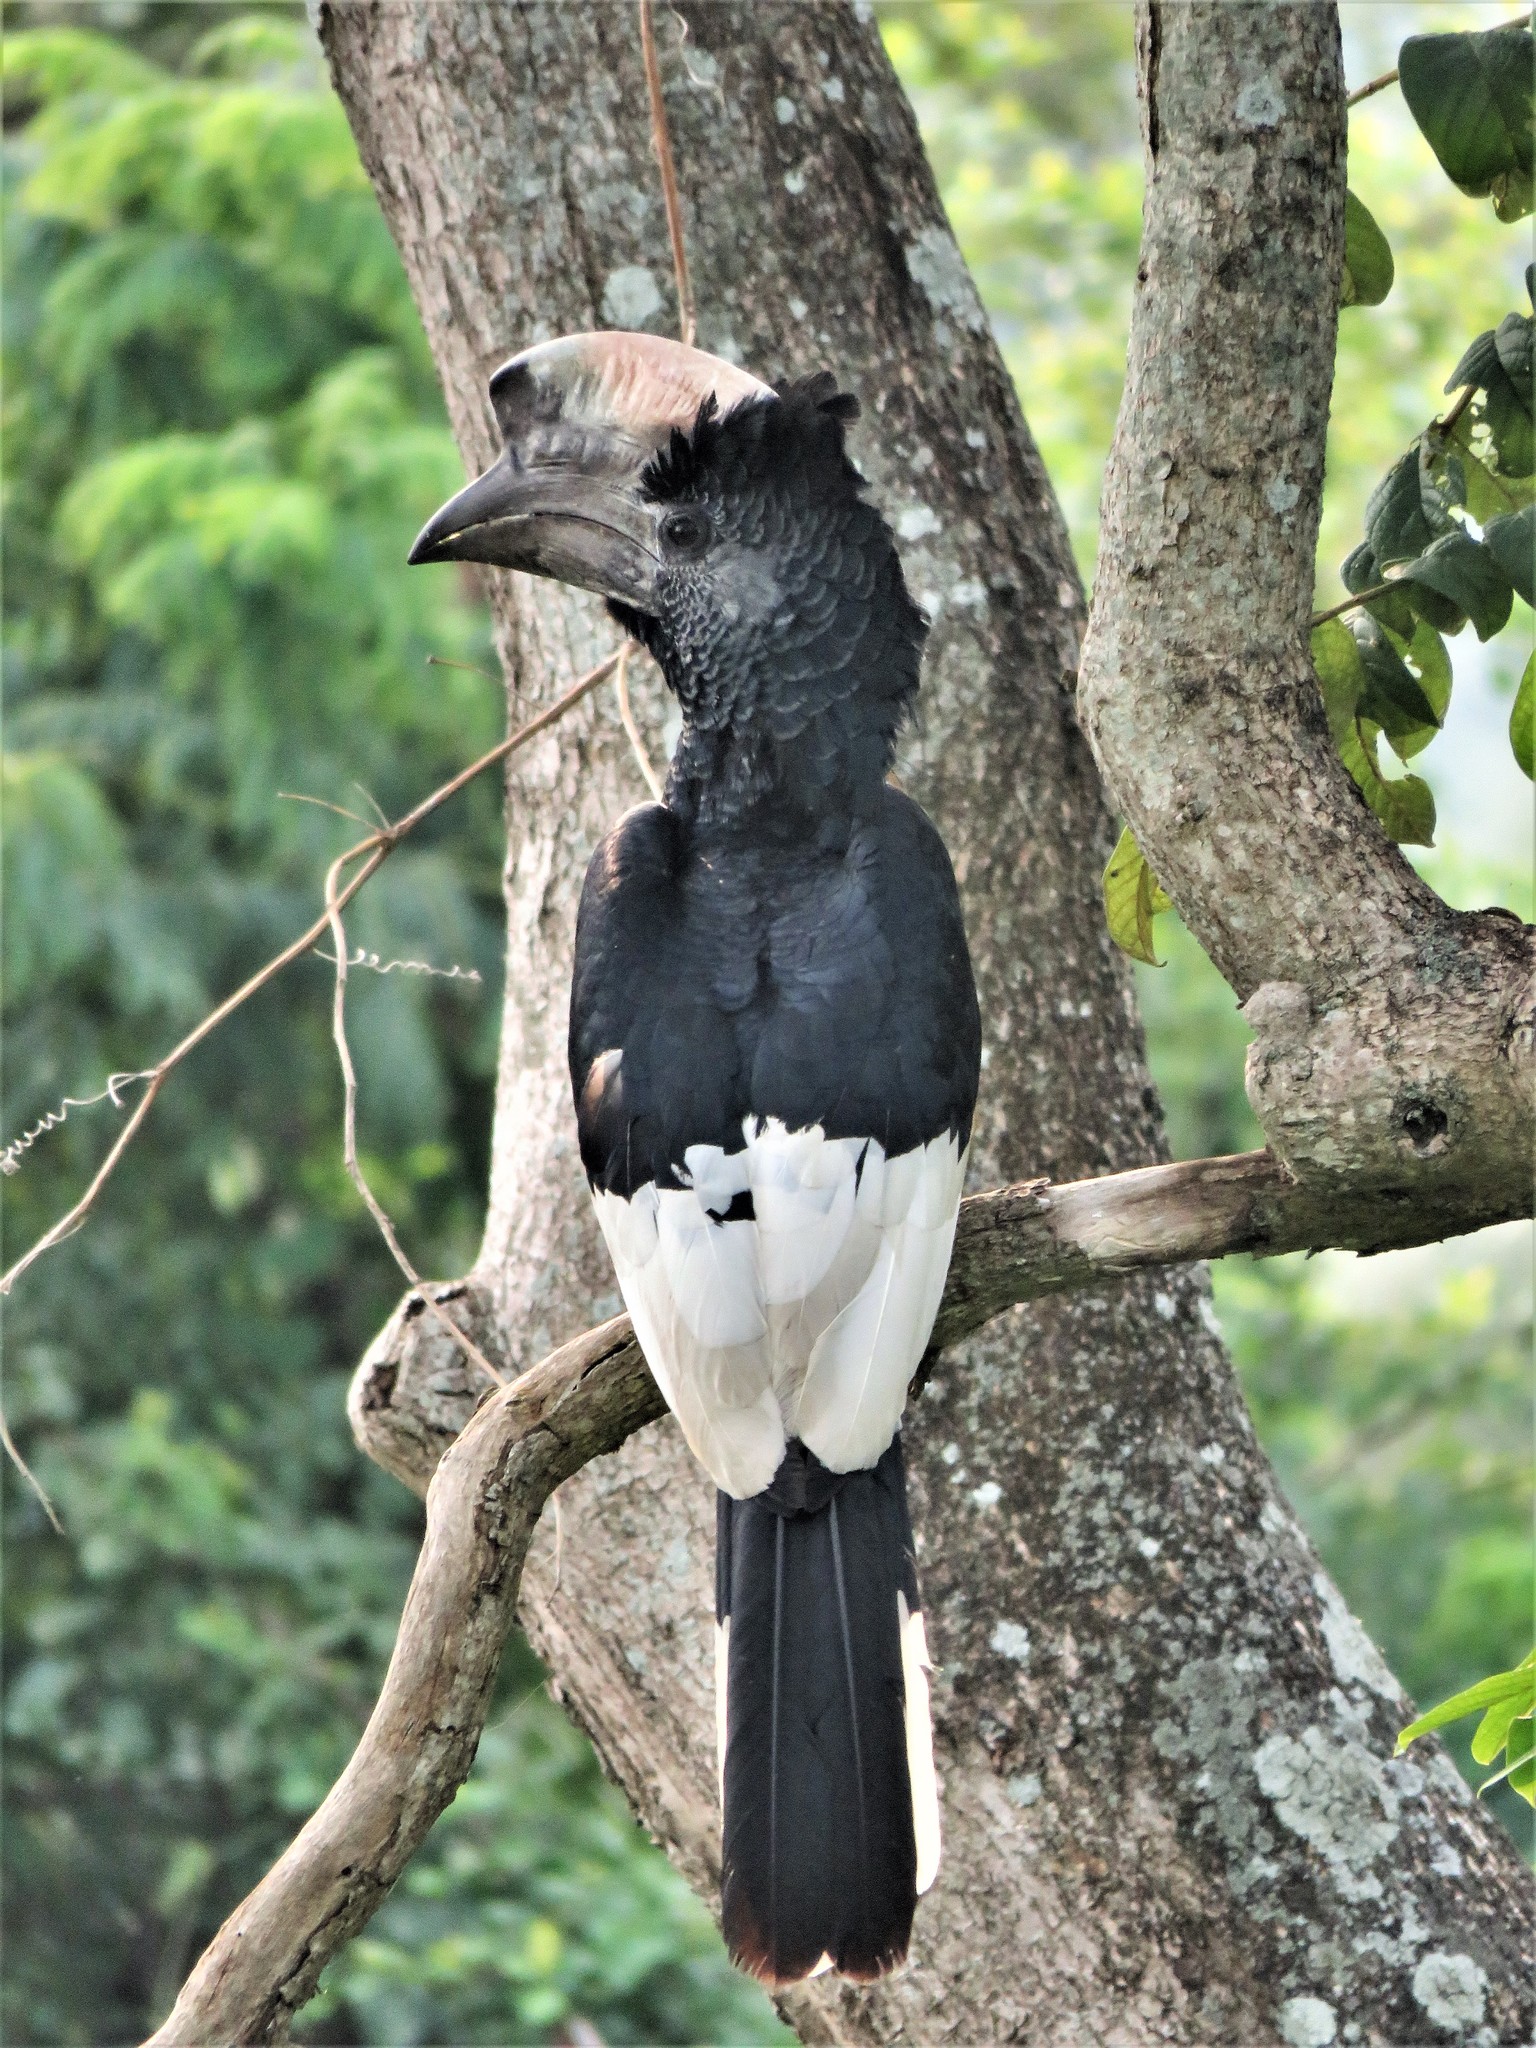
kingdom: Animalia
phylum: Chordata
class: Aves
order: Bucerotiformes
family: Bucerotidae
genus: Bycanistes
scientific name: Bycanistes subcylindricus
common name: Black-and-white-casqued hornbill
